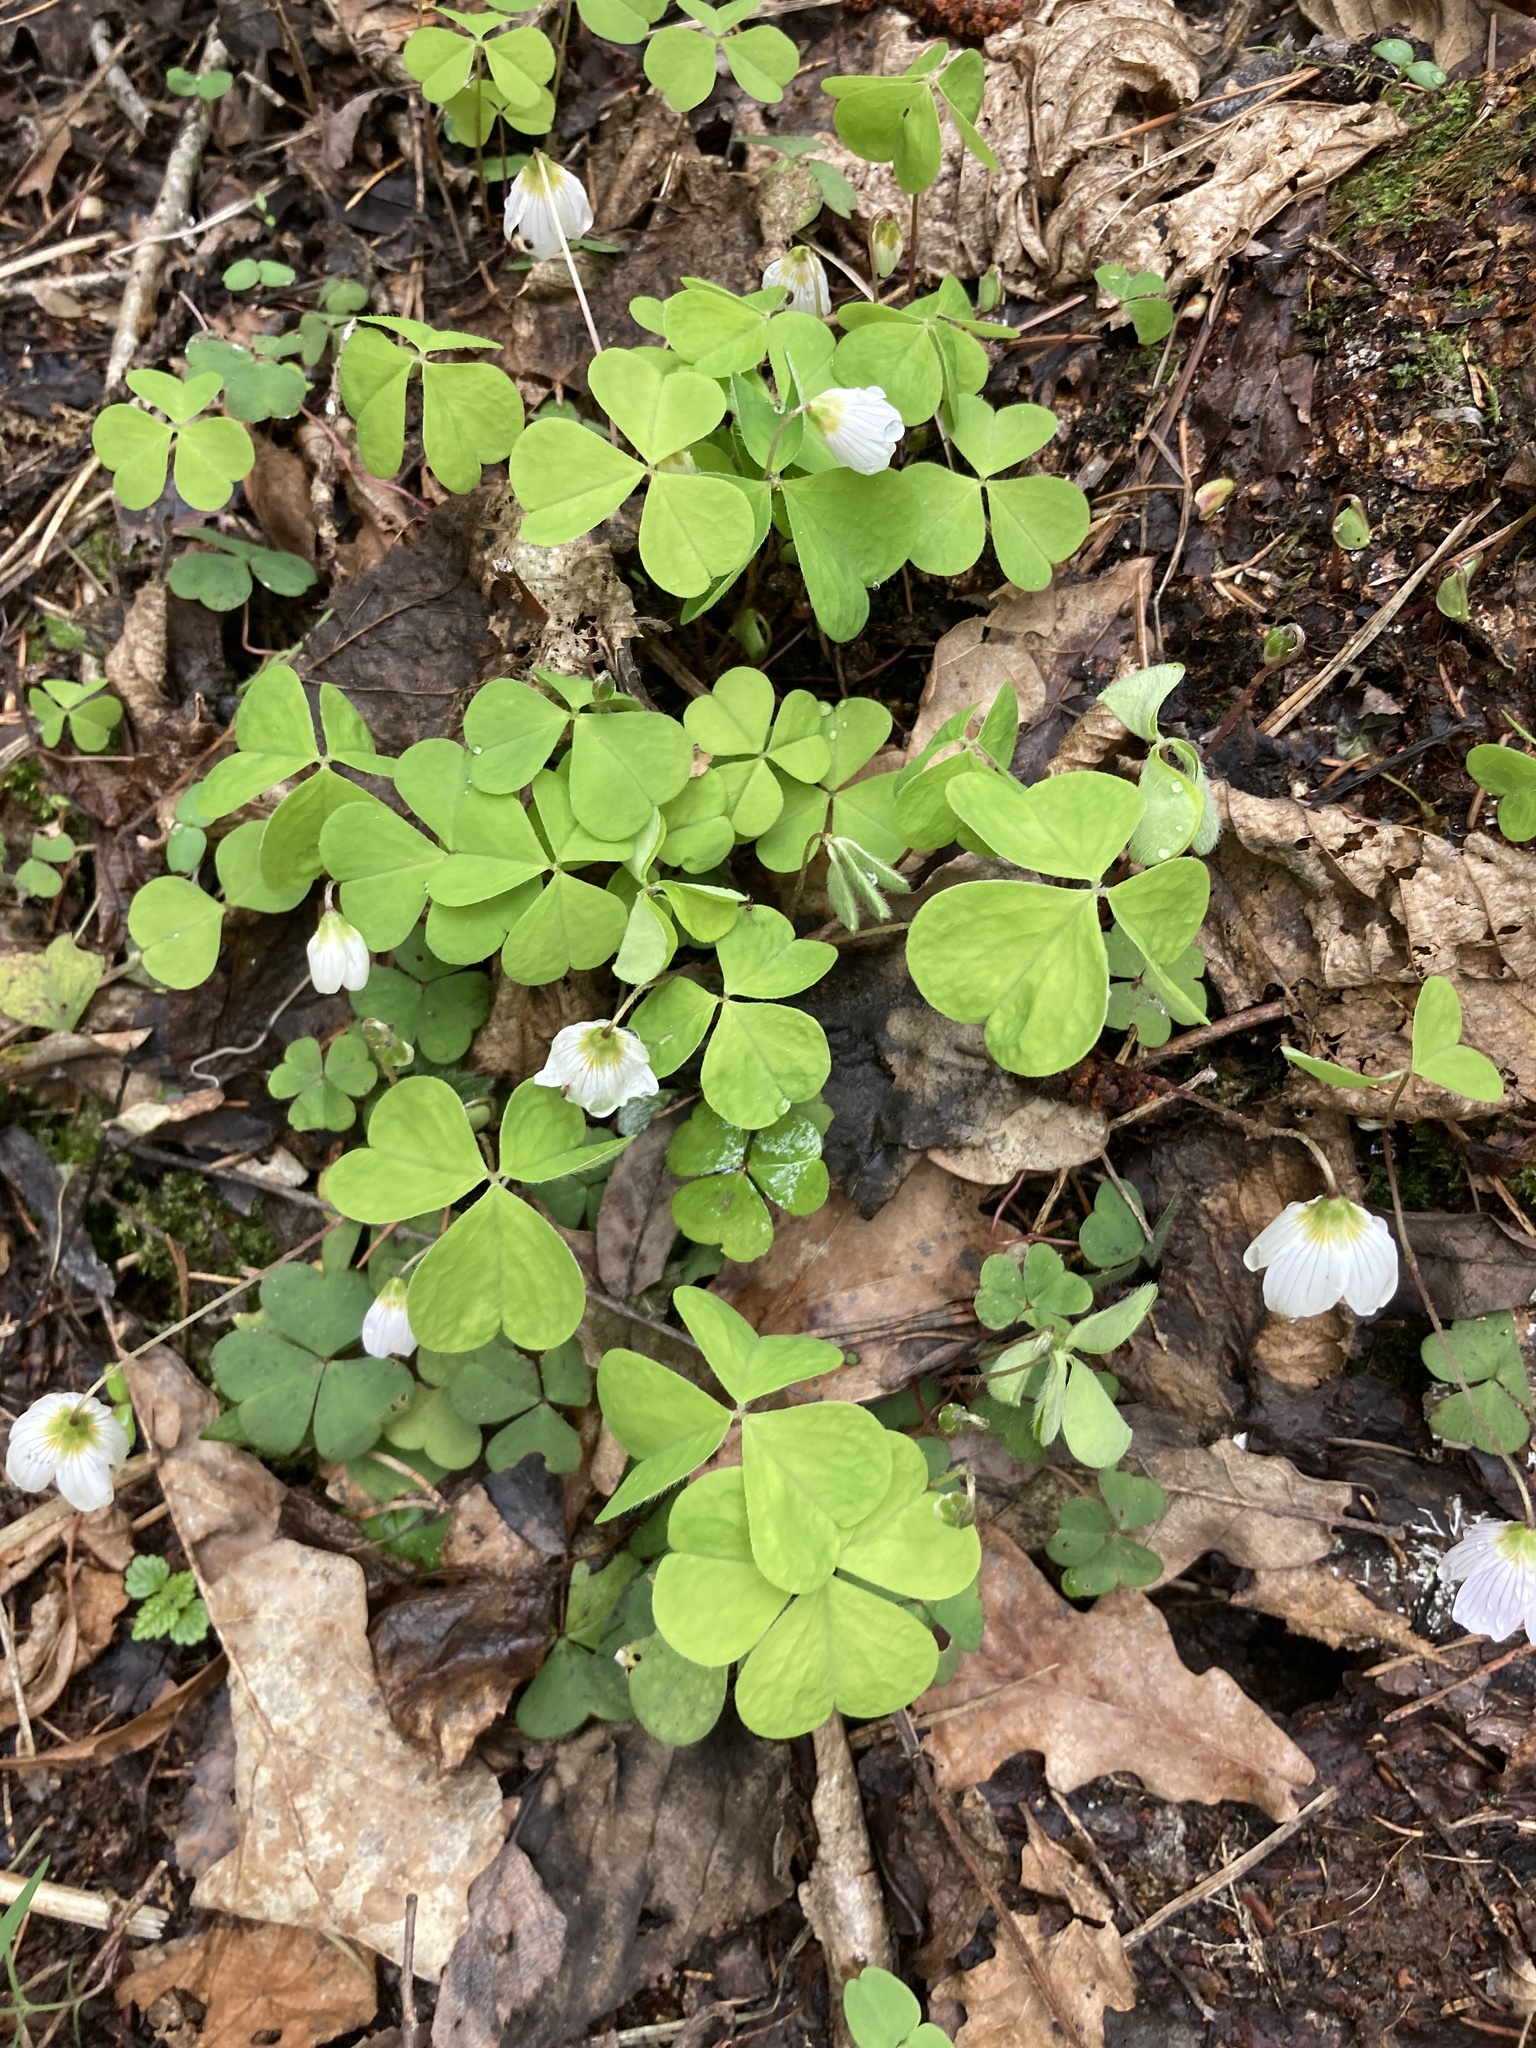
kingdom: Plantae
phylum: Tracheophyta
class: Magnoliopsida
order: Oxalidales
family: Oxalidaceae
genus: Oxalis
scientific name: Oxalis acetosella
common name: Wood-sorrel
